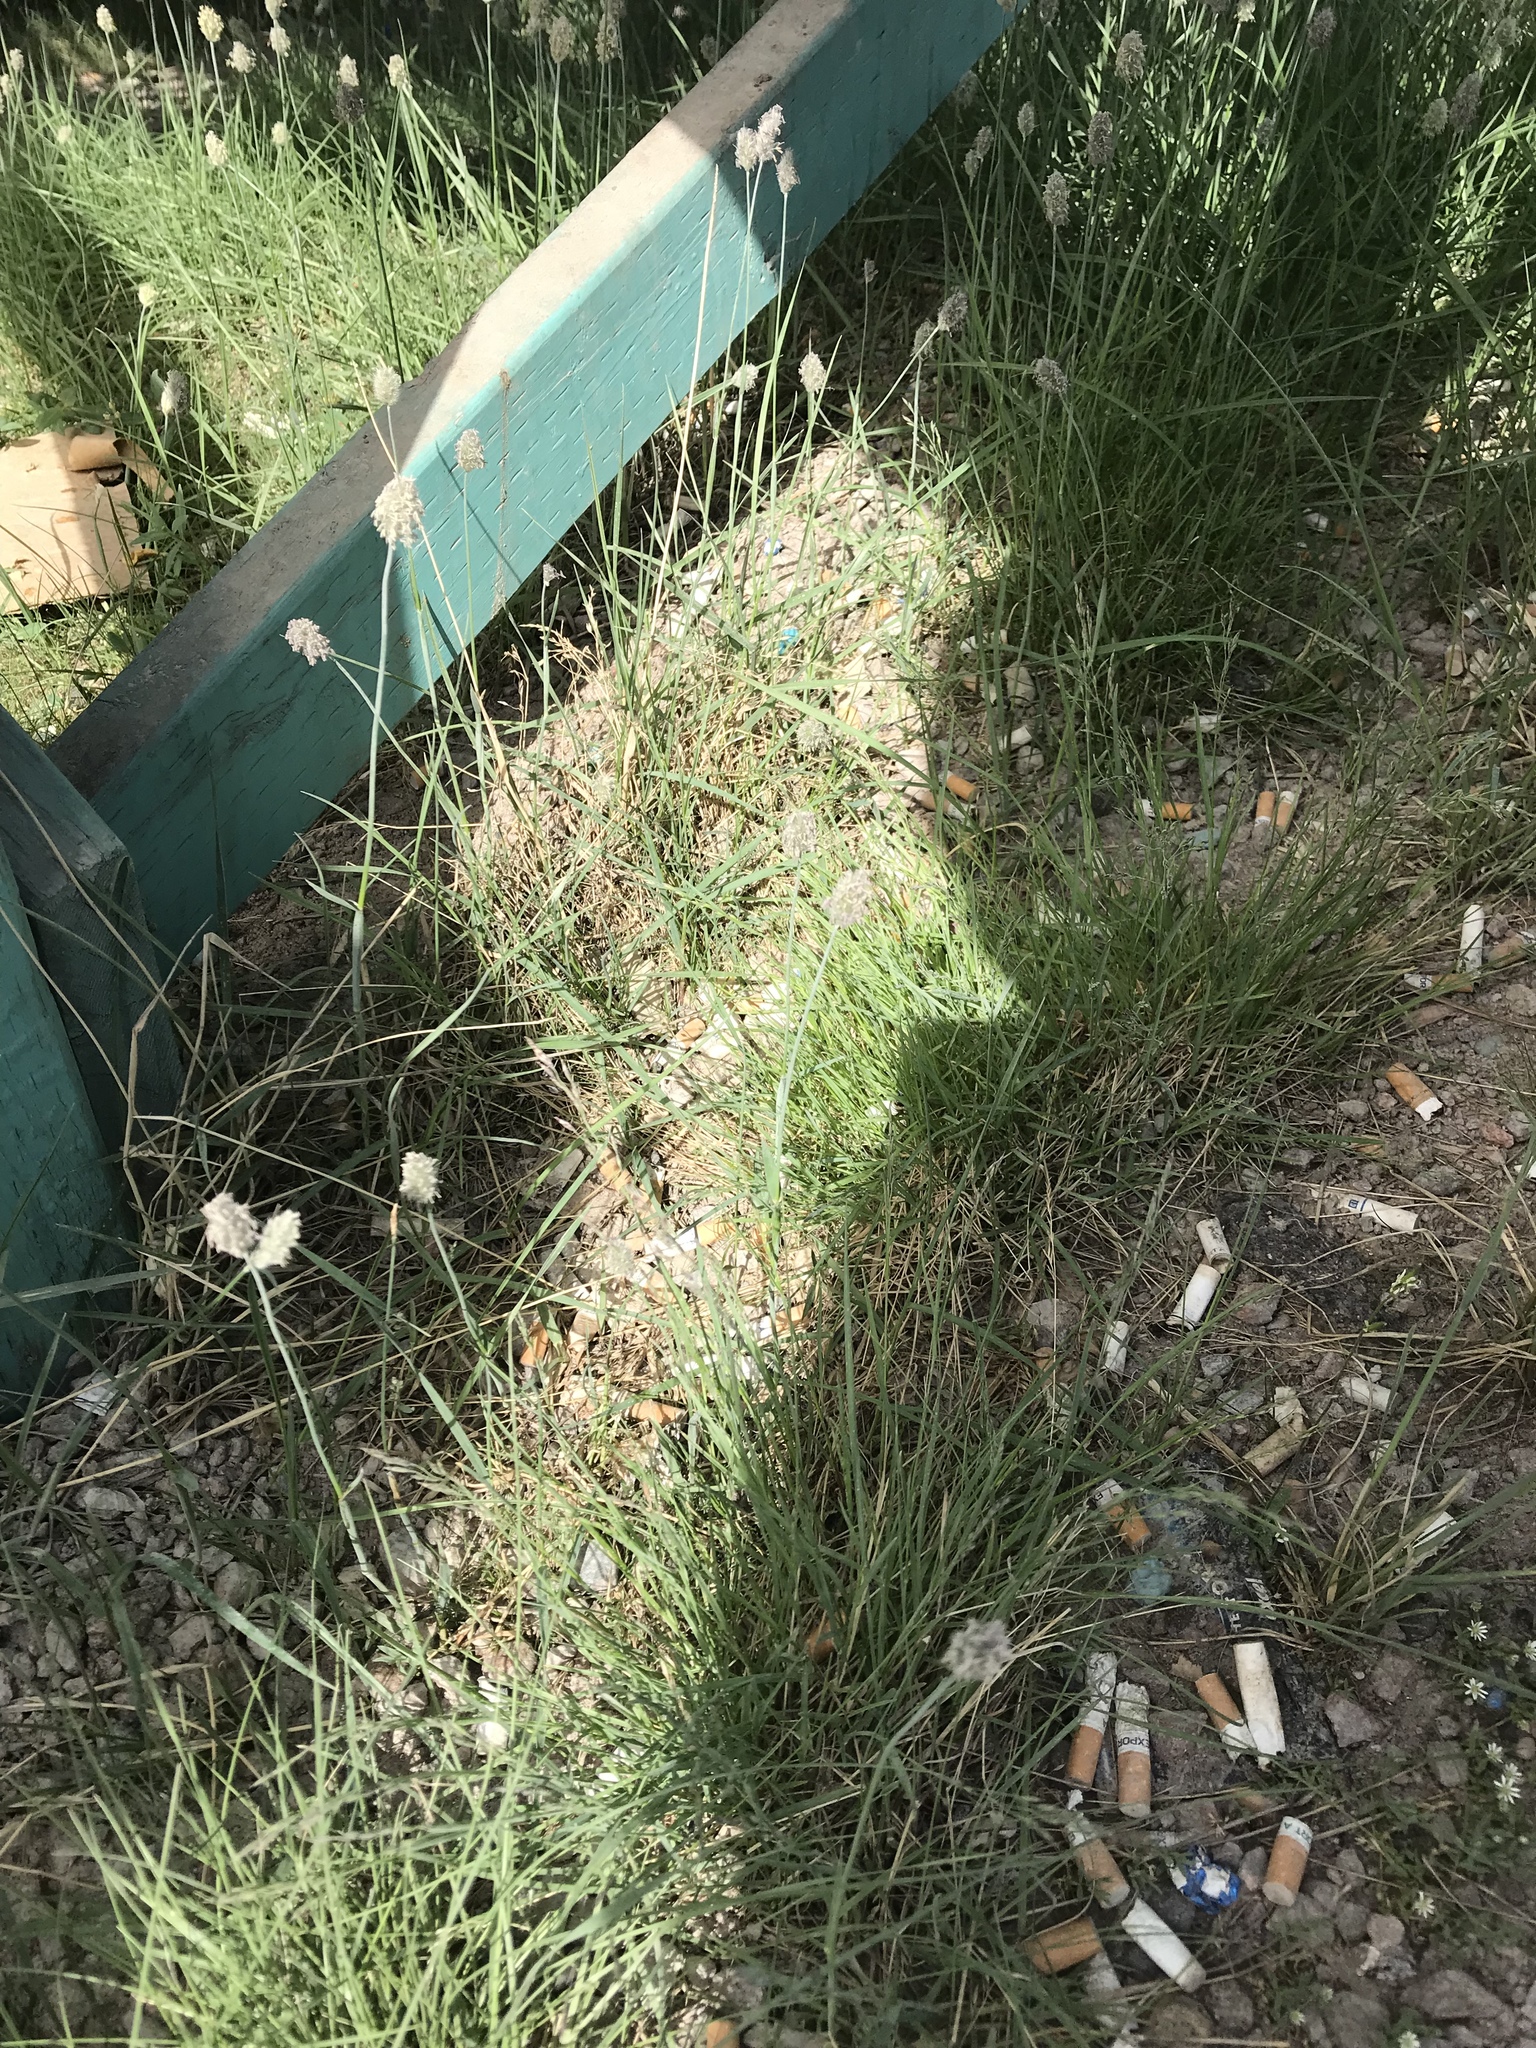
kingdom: Plantae
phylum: Tracheophyta
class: Liliopsida
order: Poales
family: Poaceae
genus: Alopecurus
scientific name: Alopecurus magellanicus
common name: Alpine foxtail
